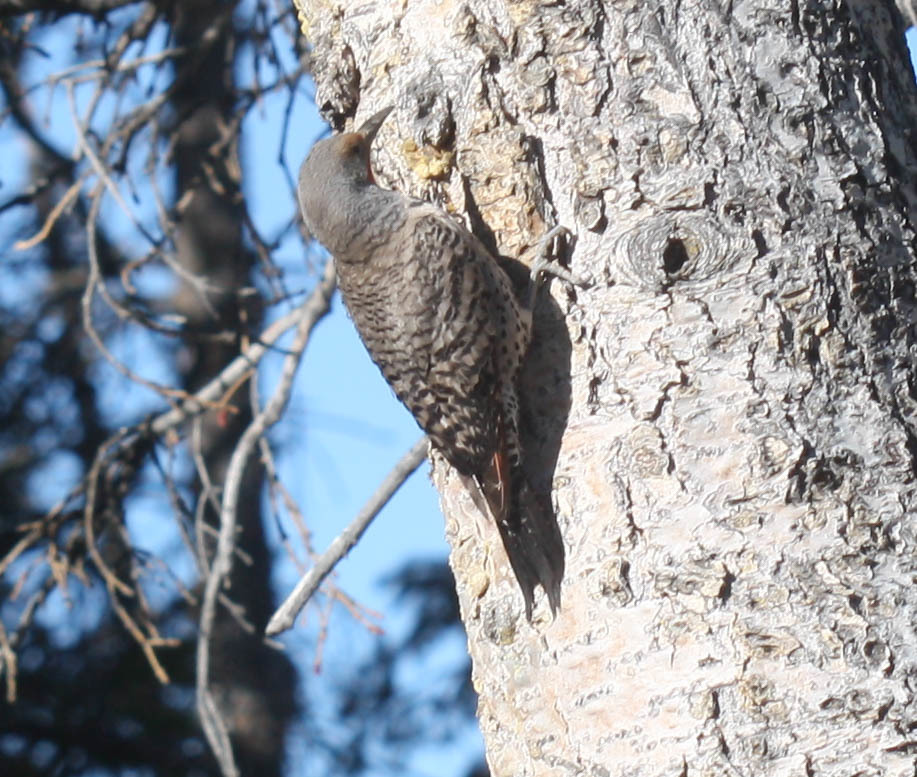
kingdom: Animalia
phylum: Chordata
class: Aves
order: Piciformes
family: Picidae
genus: Colaptes
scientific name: Colaptes auratus
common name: Northern flicker
